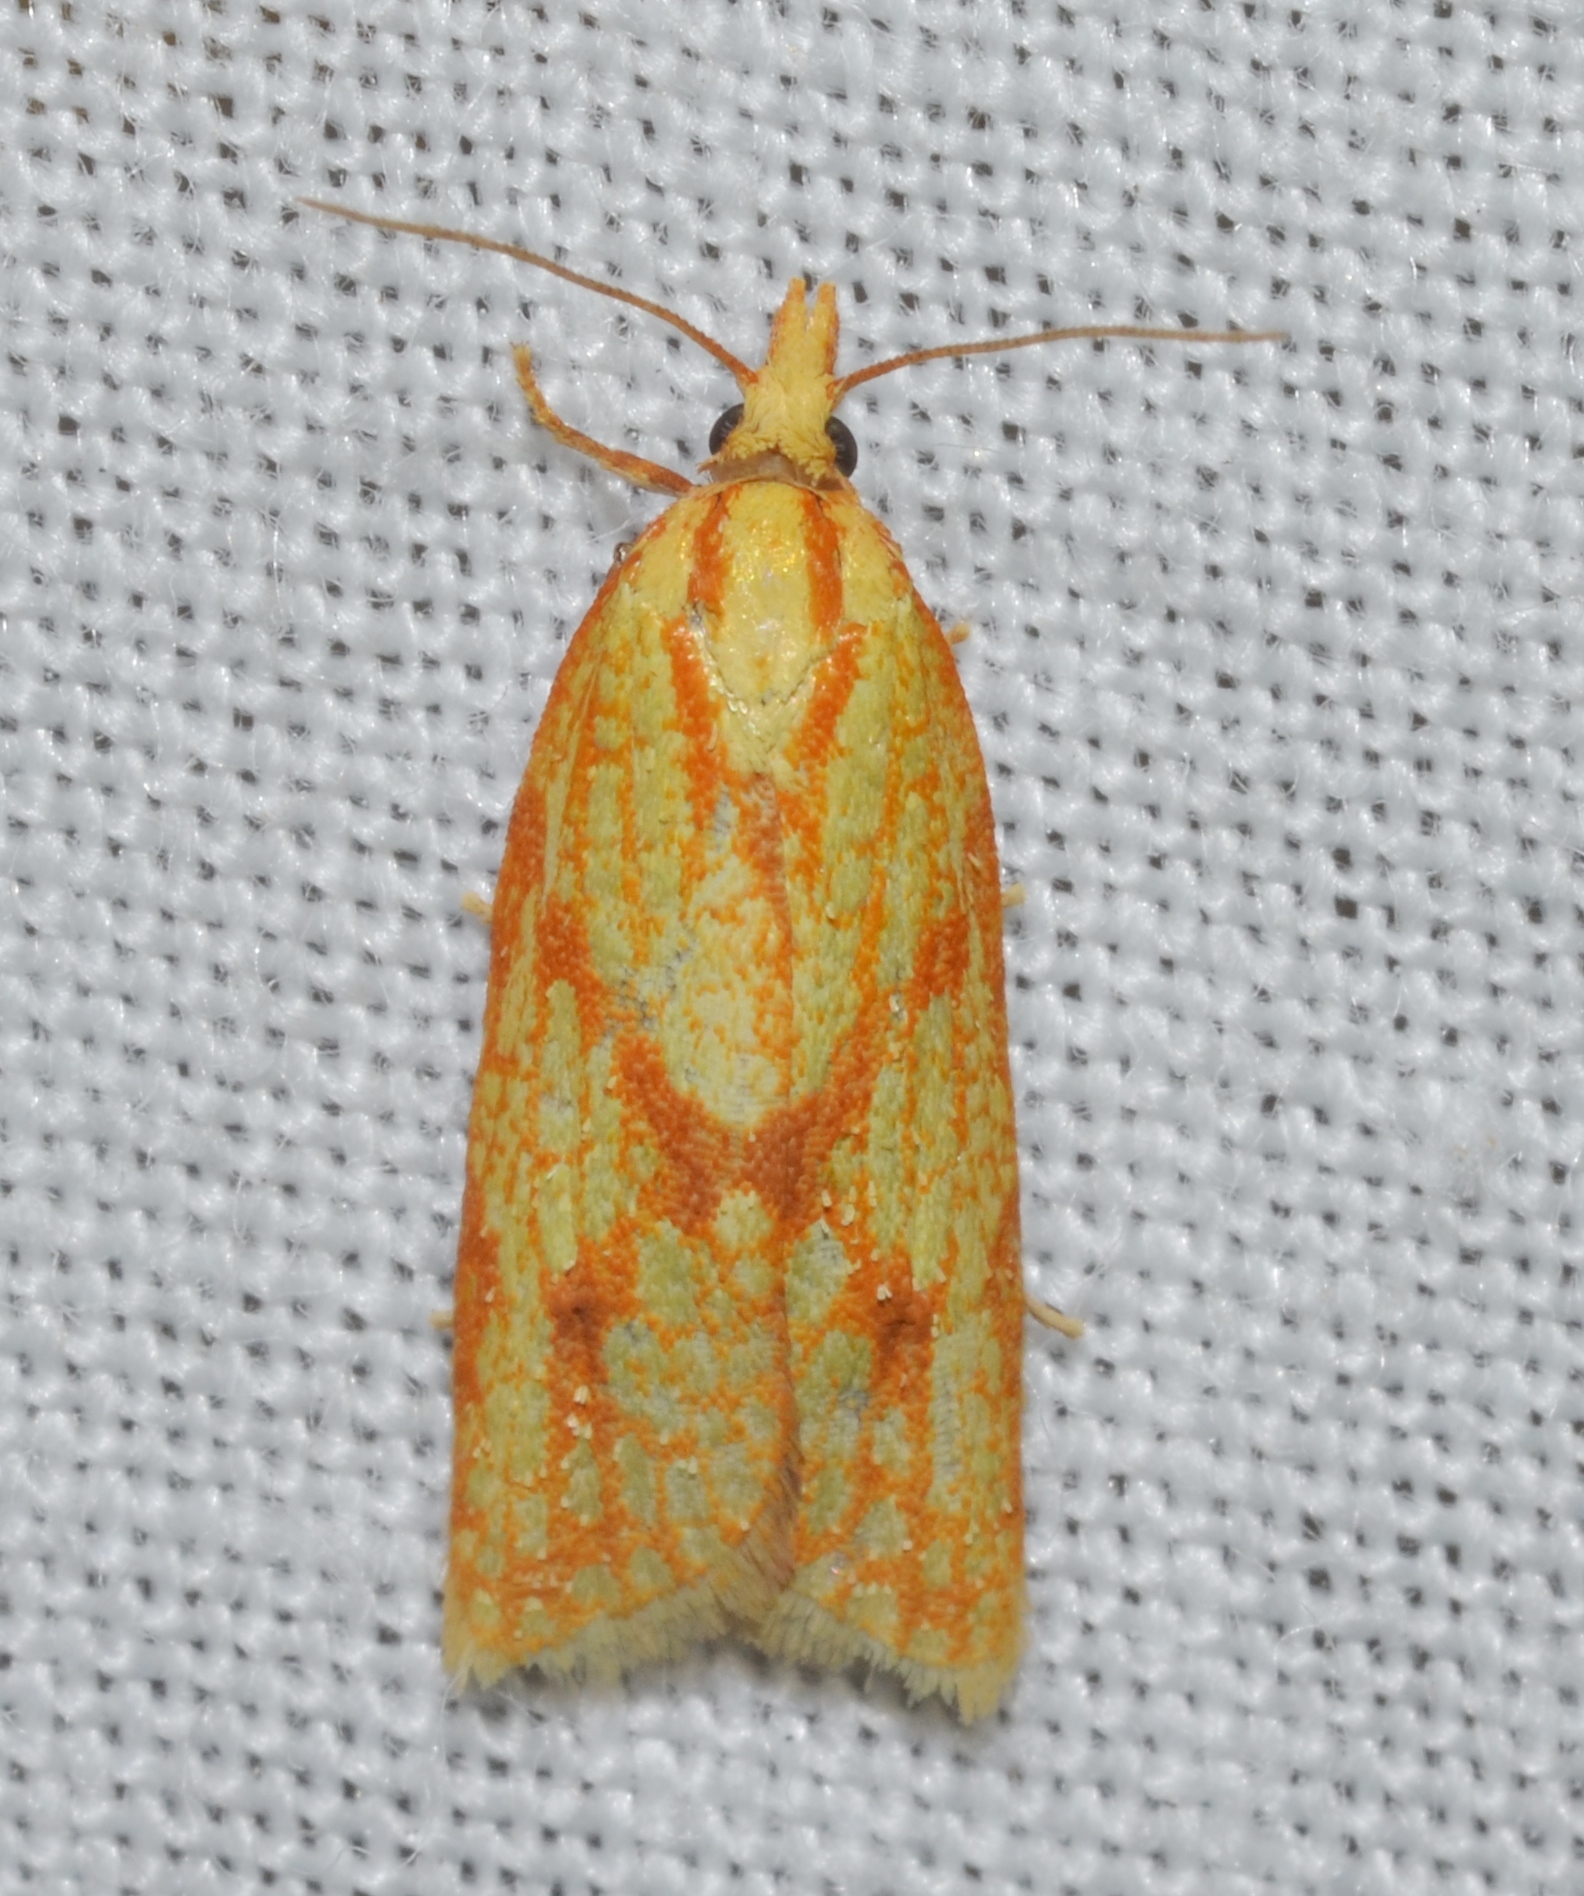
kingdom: Animalia
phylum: Arthropoda
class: Insecta
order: Lepidoptera
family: Tortricidae
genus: Sparganothis
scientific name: Sparganothis sulfureana
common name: Sparganothis fruitworm moth
